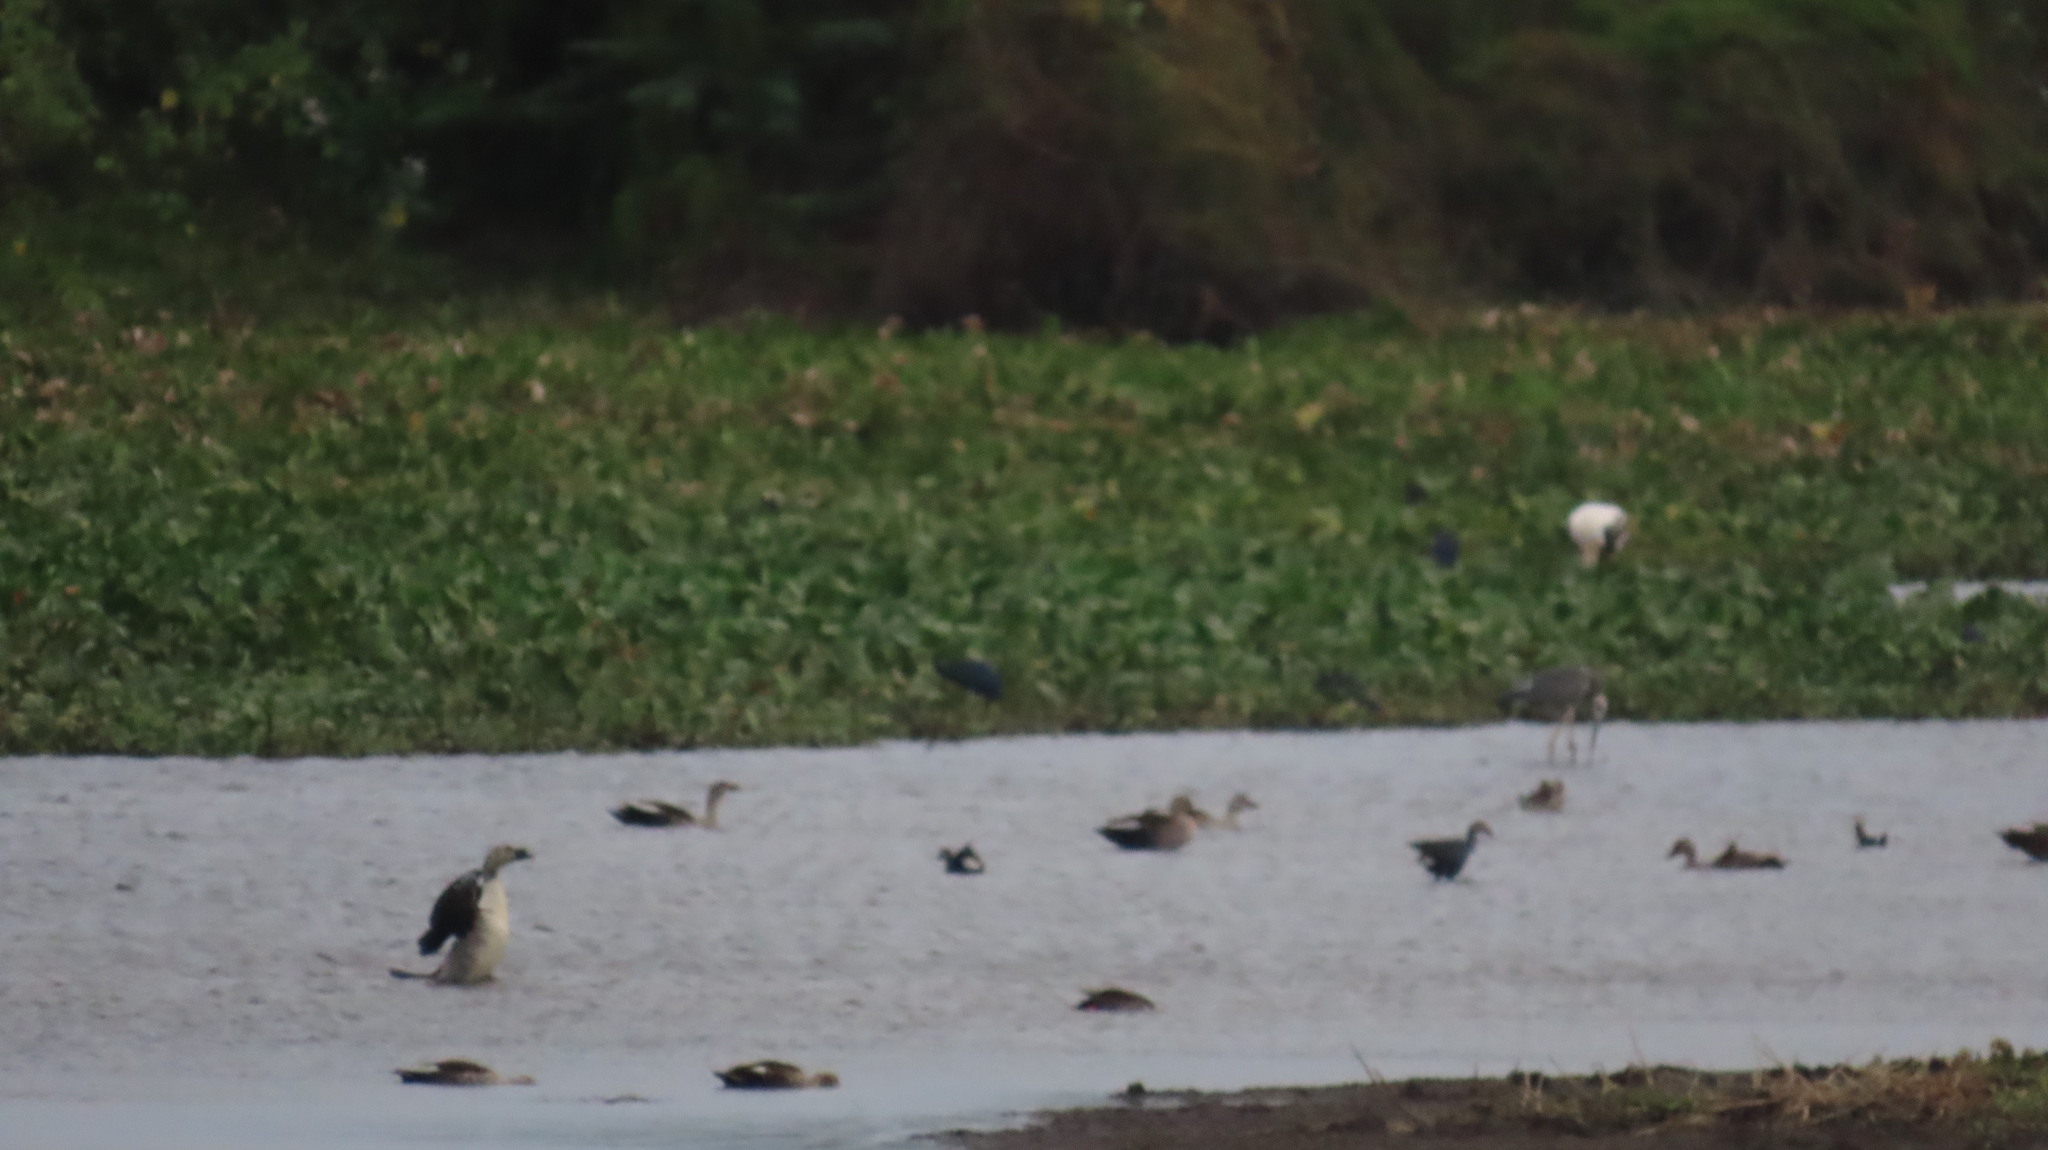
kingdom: Animalia
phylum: Chordata
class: Aves
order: Anseriformes
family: Anatidae
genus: Anas
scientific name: Anas poecilorhyncha
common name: Indian spot-billed duck
